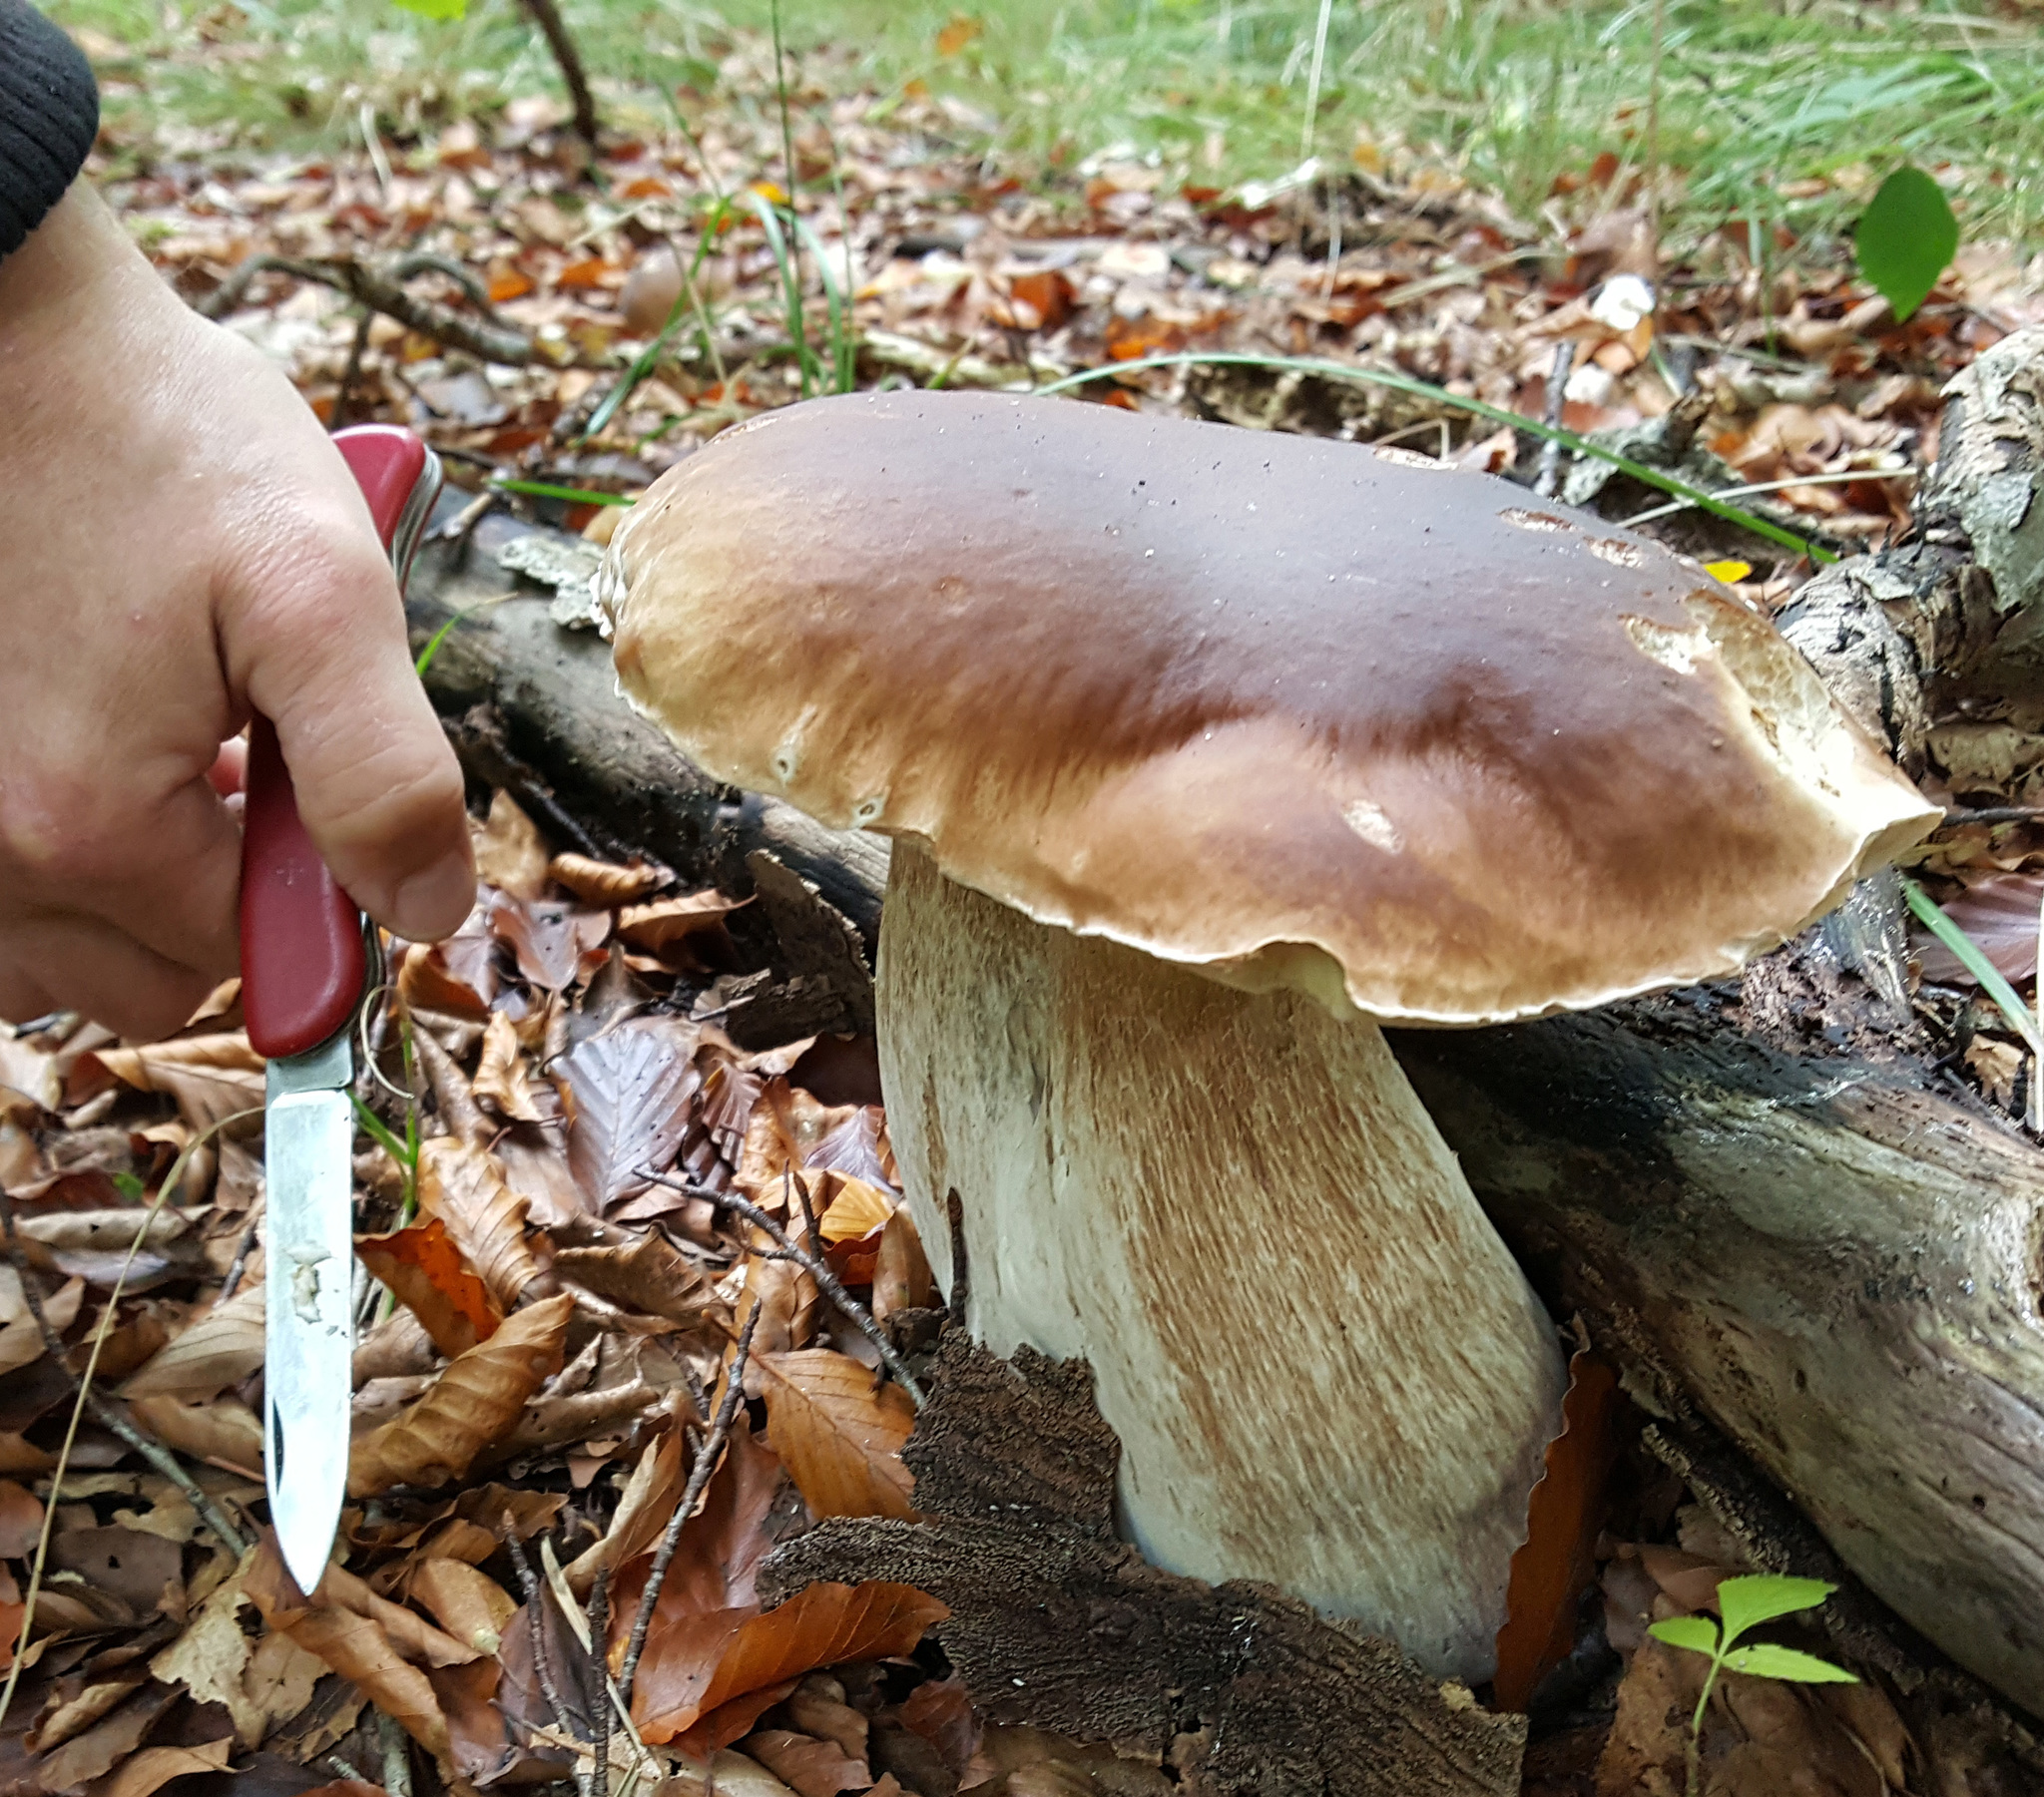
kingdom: Fungi
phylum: Basidiomycota
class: Agaricomycetes
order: Boletales
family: Boletaceae
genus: Boletus
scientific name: Boletus edulis
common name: Cep
